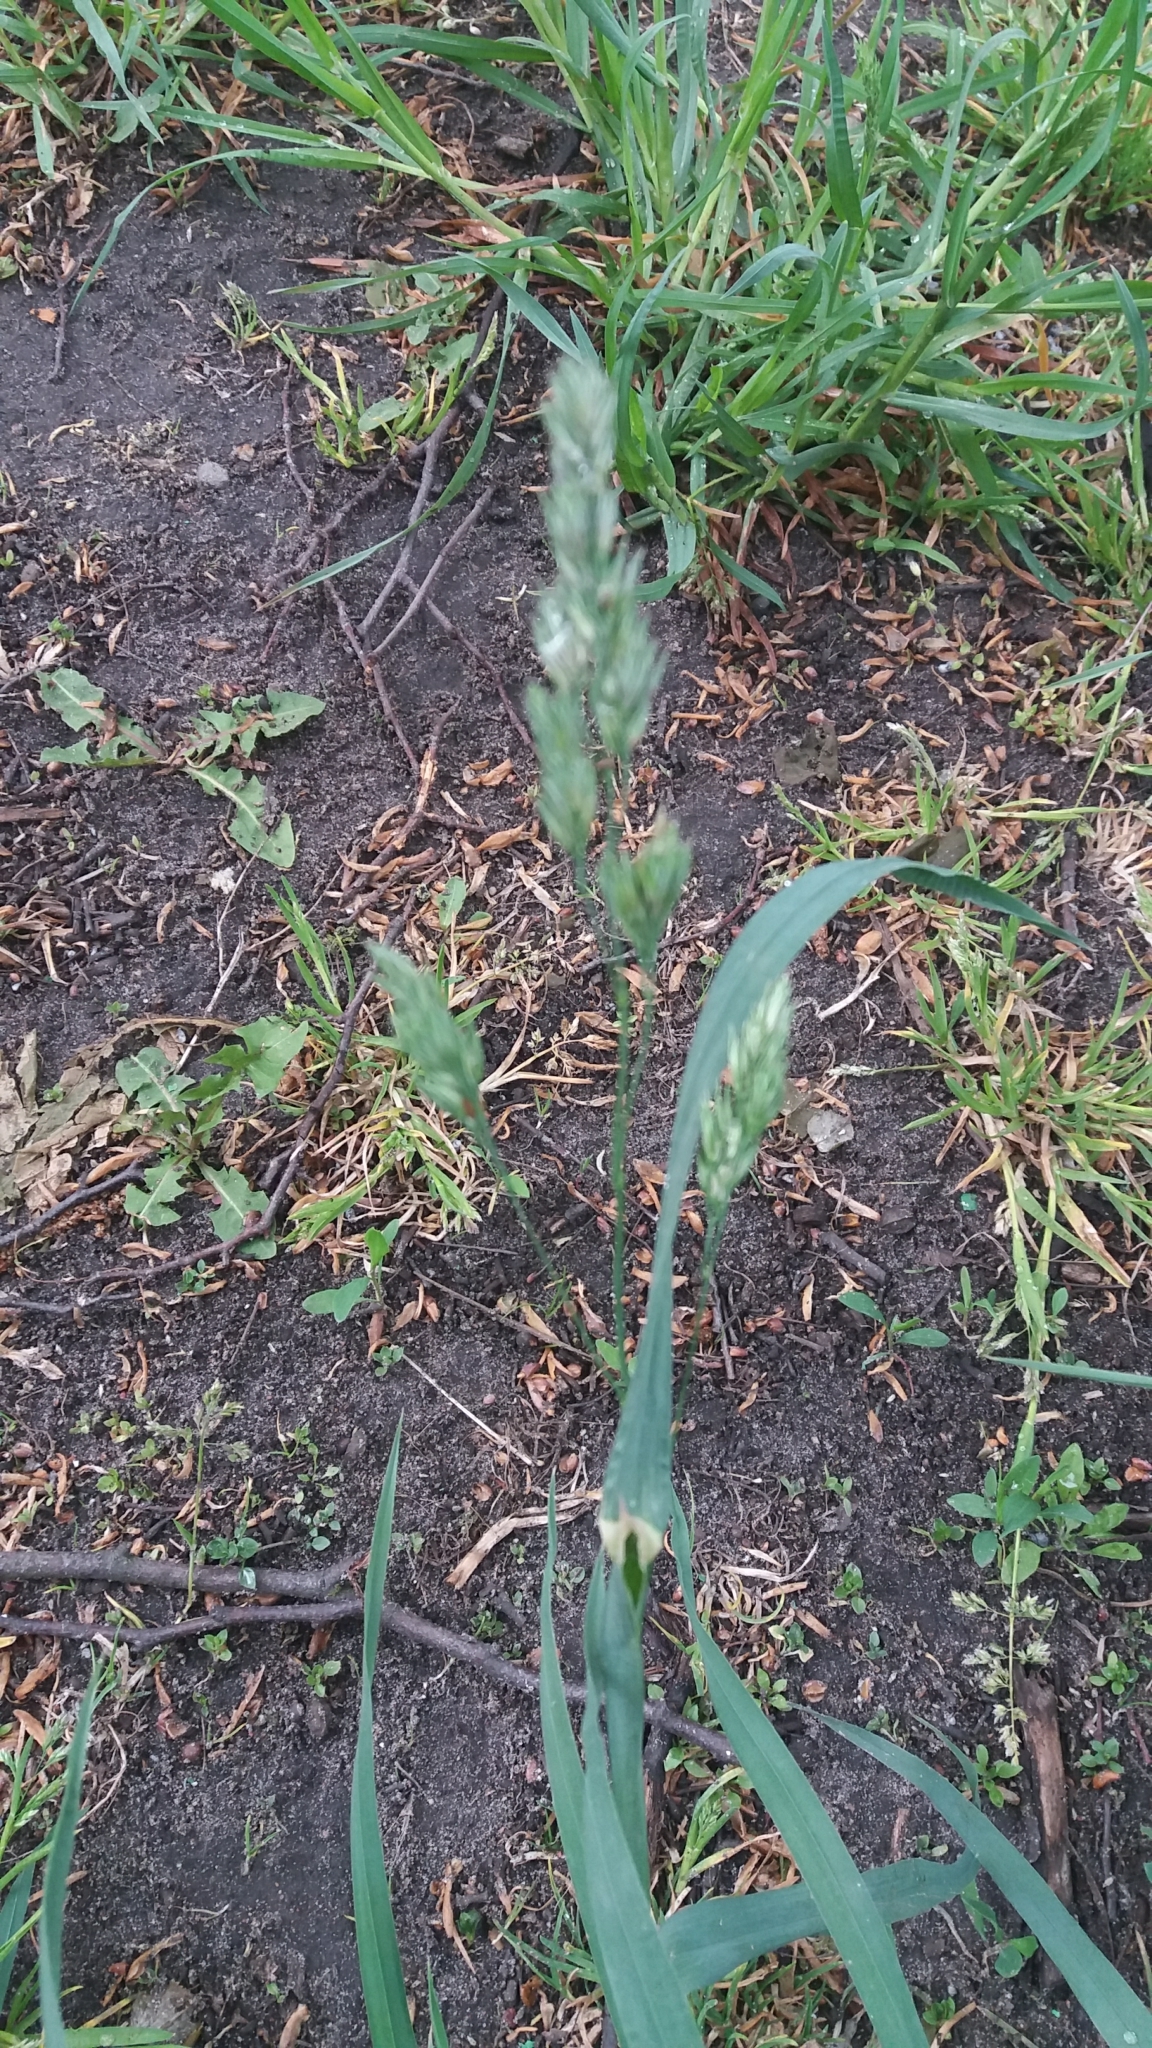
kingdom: Plantae
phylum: Tracheophyta
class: Liliopsida
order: Poales
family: Poaceae
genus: Dactylis
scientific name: Dactylis glomerata
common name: Orchardgrass
